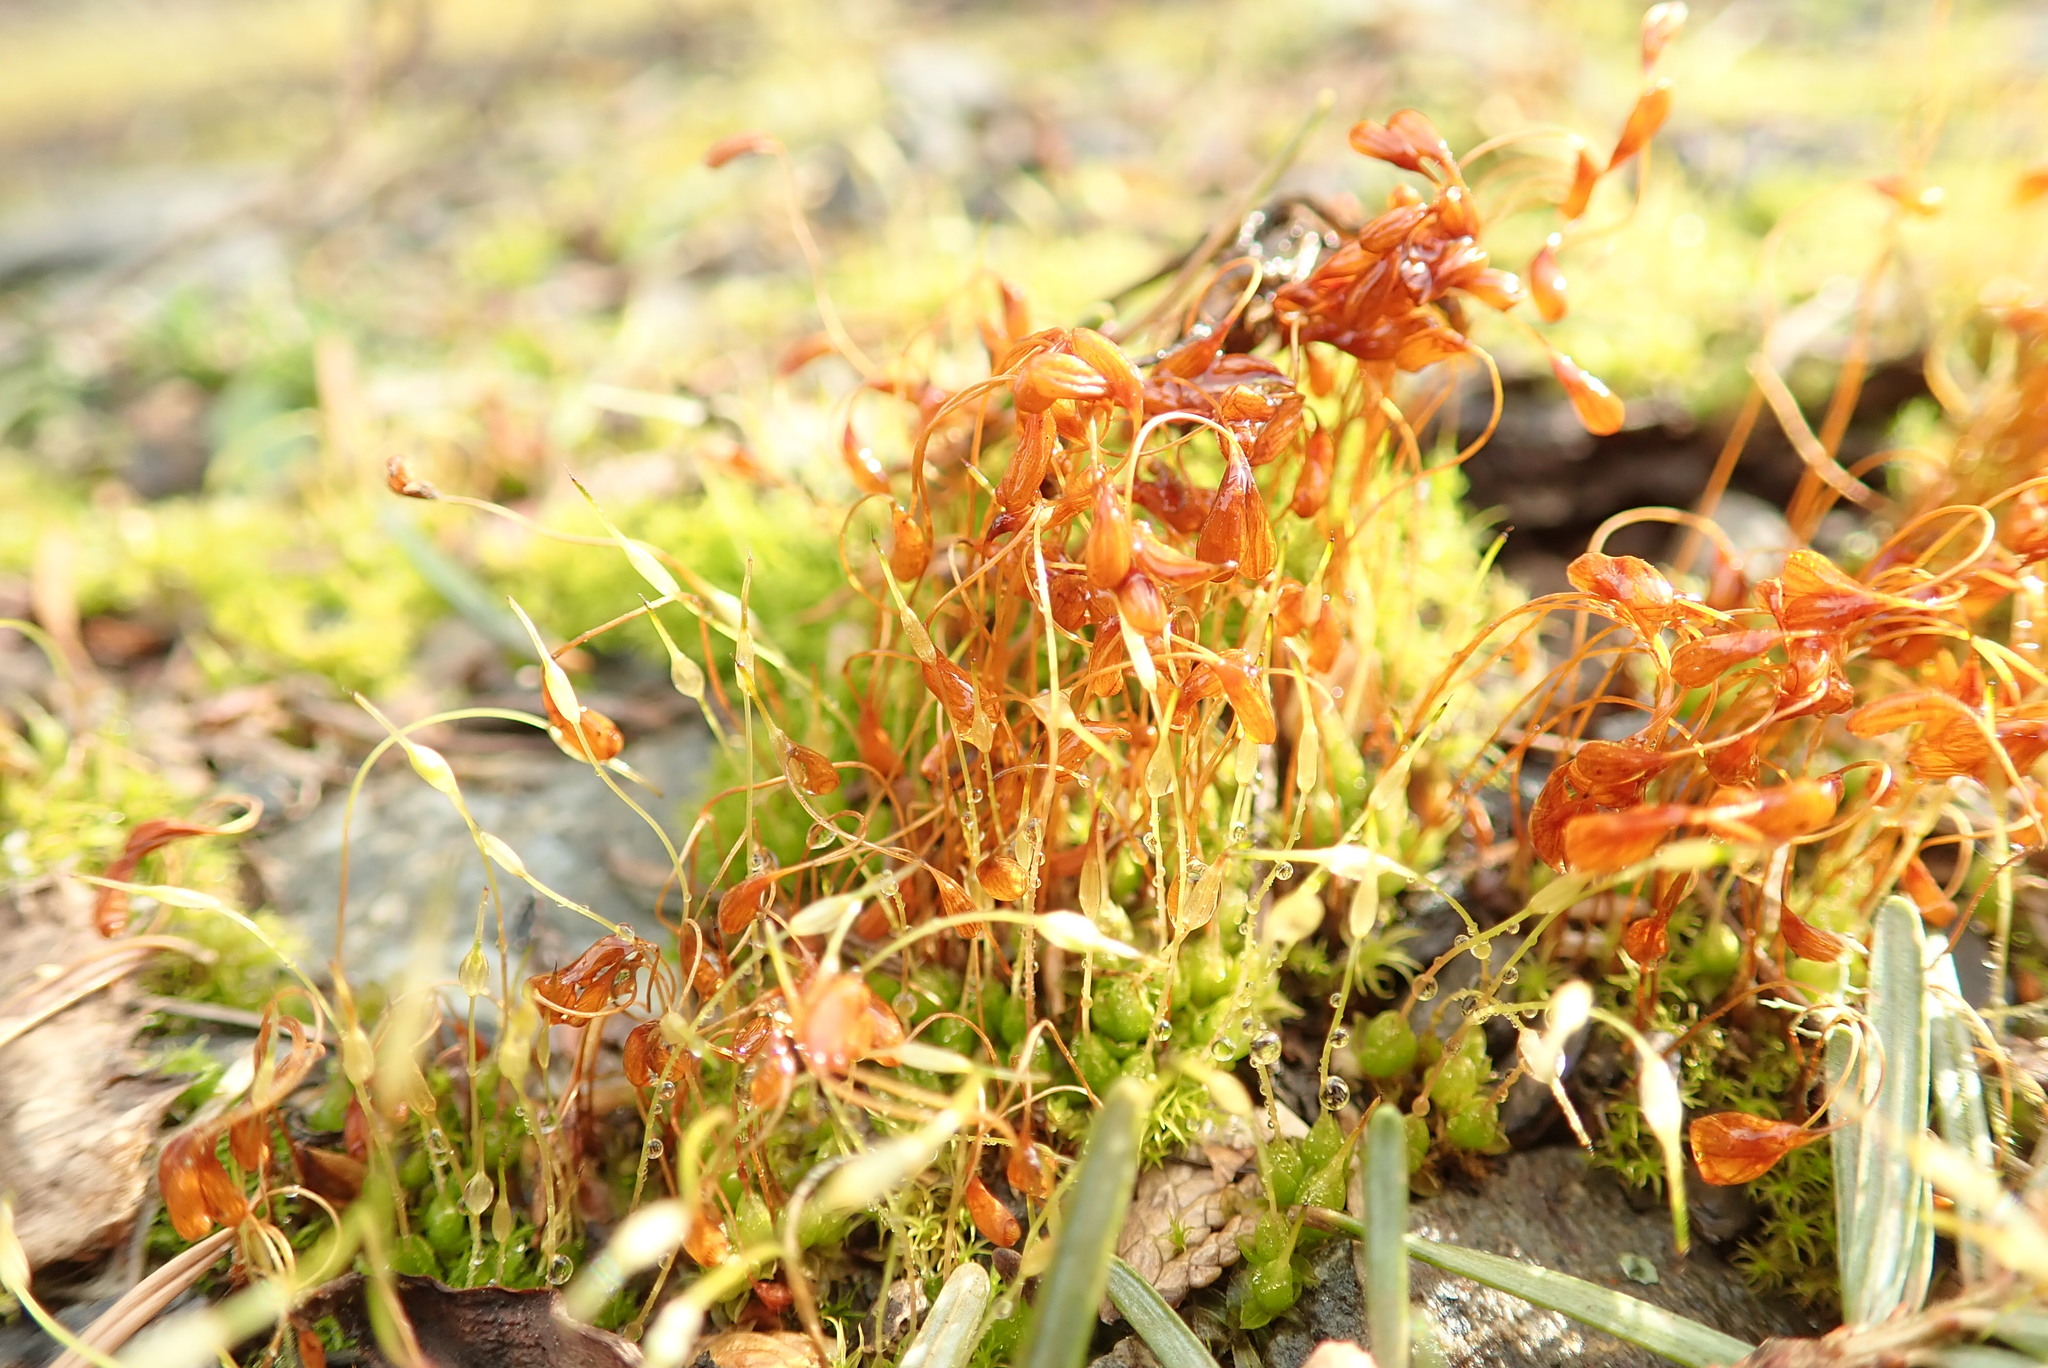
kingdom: Plantae
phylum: Bryophyta
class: Bryopsida
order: Funariales
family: Funariaceae
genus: Funaria
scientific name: Funaria hygrometrica
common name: Common cord moss
